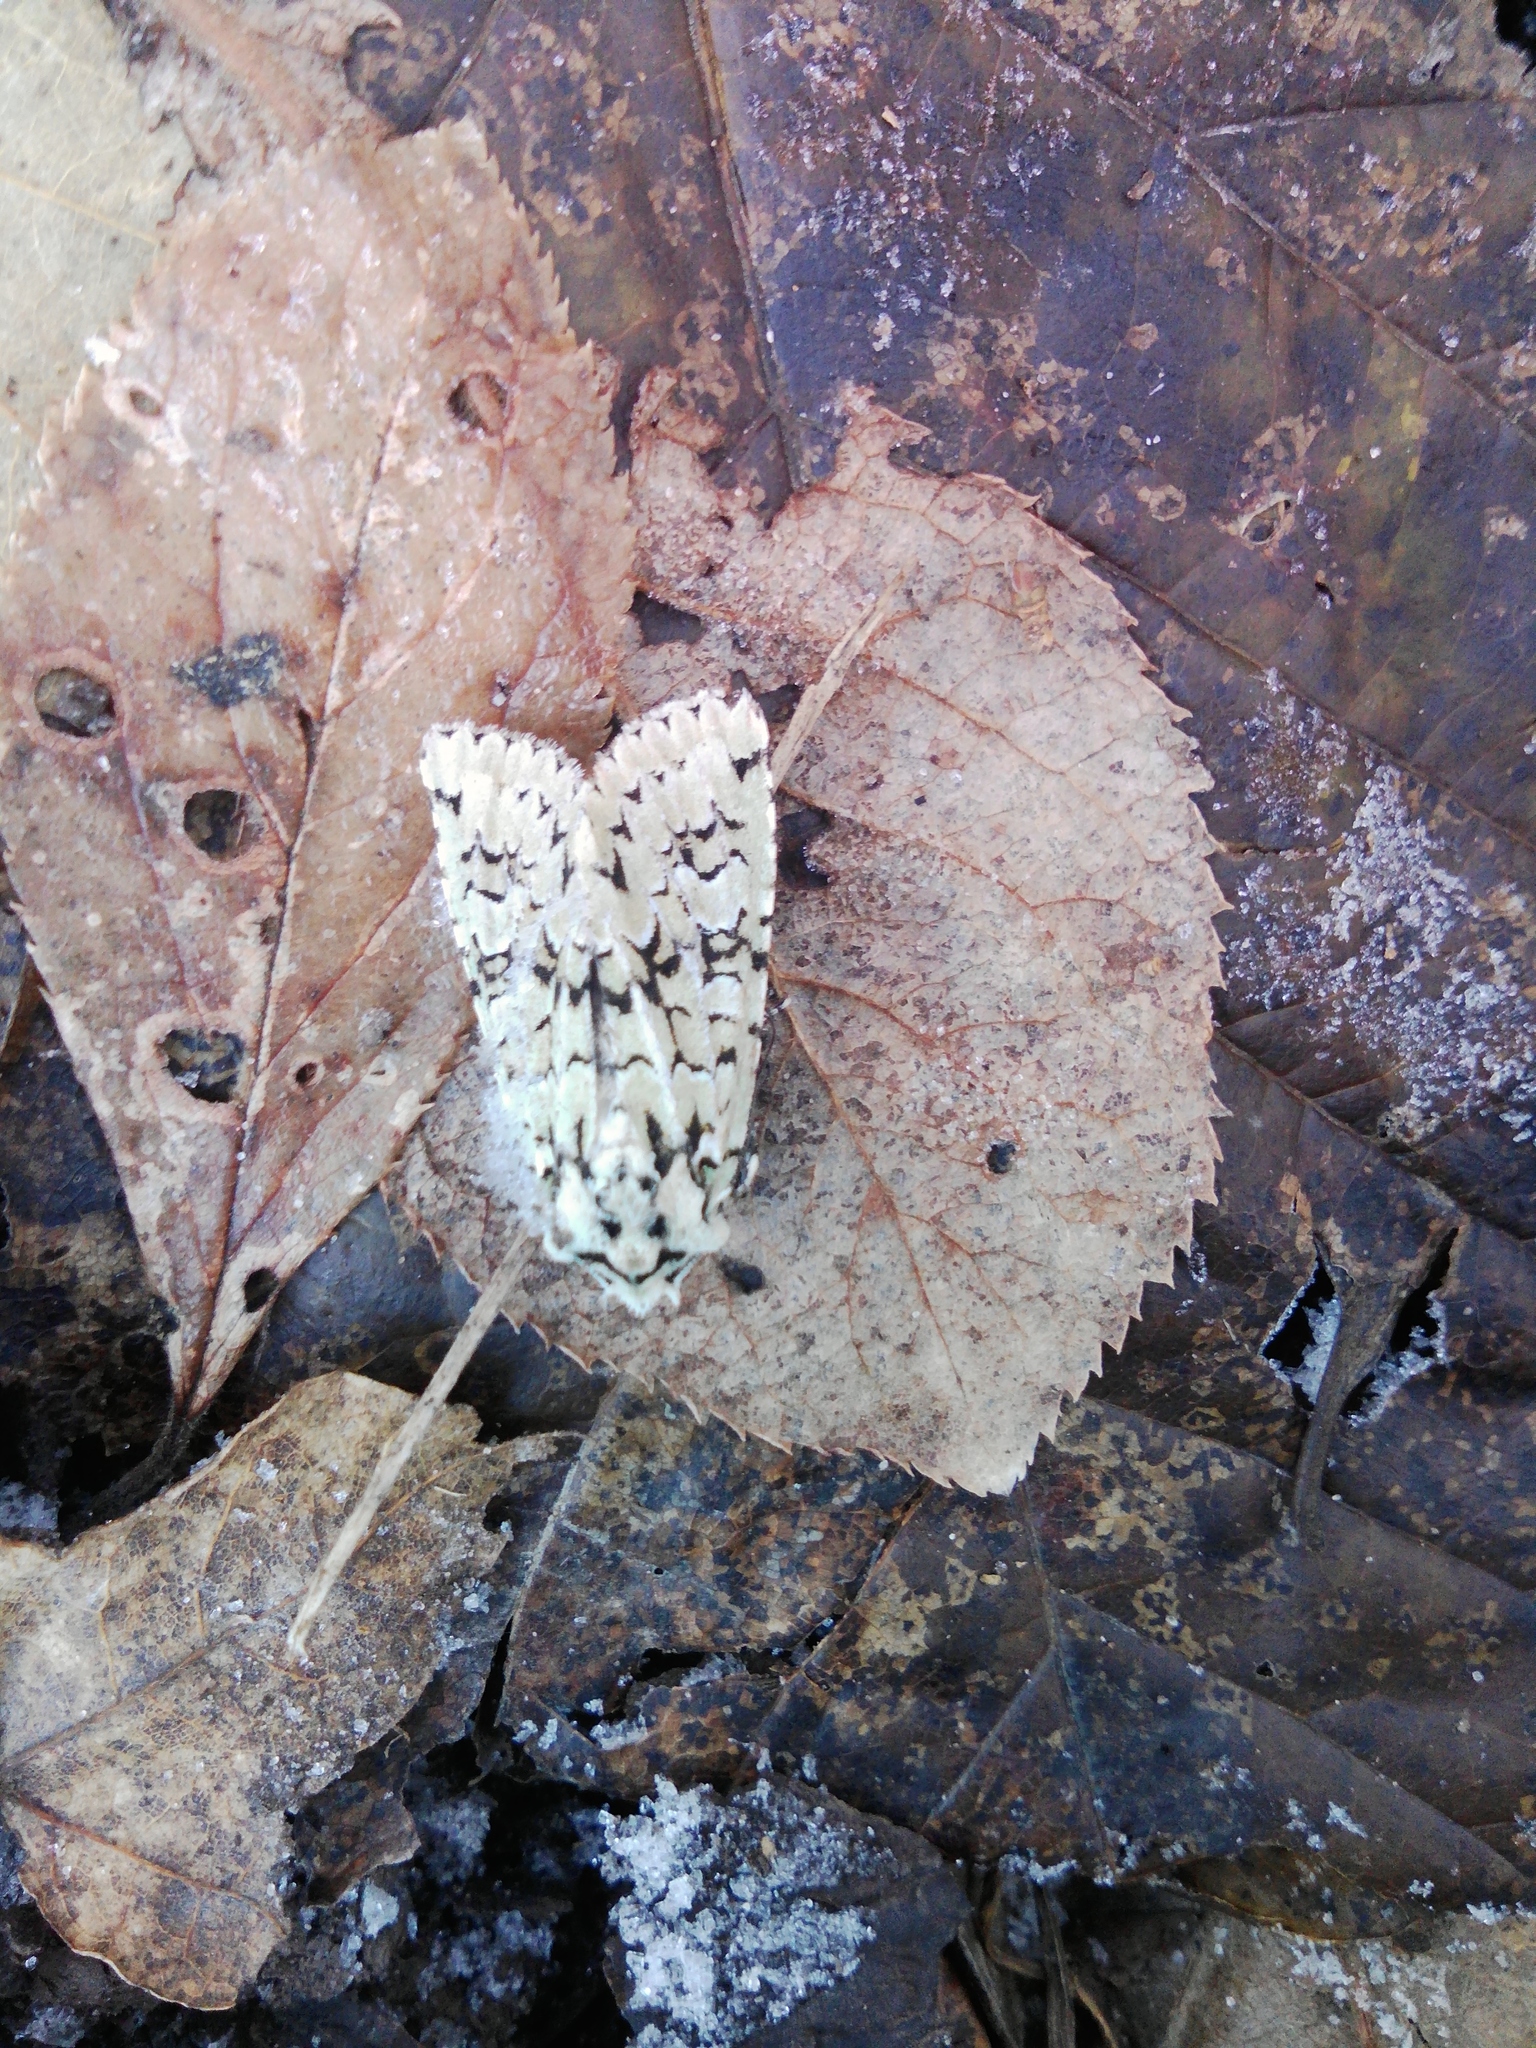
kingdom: Animalia
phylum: Arthropoda
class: Insecta
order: Lepidoptera
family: Noctuidae
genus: Griposia
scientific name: Griposia aprilina
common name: Merveille du jour
